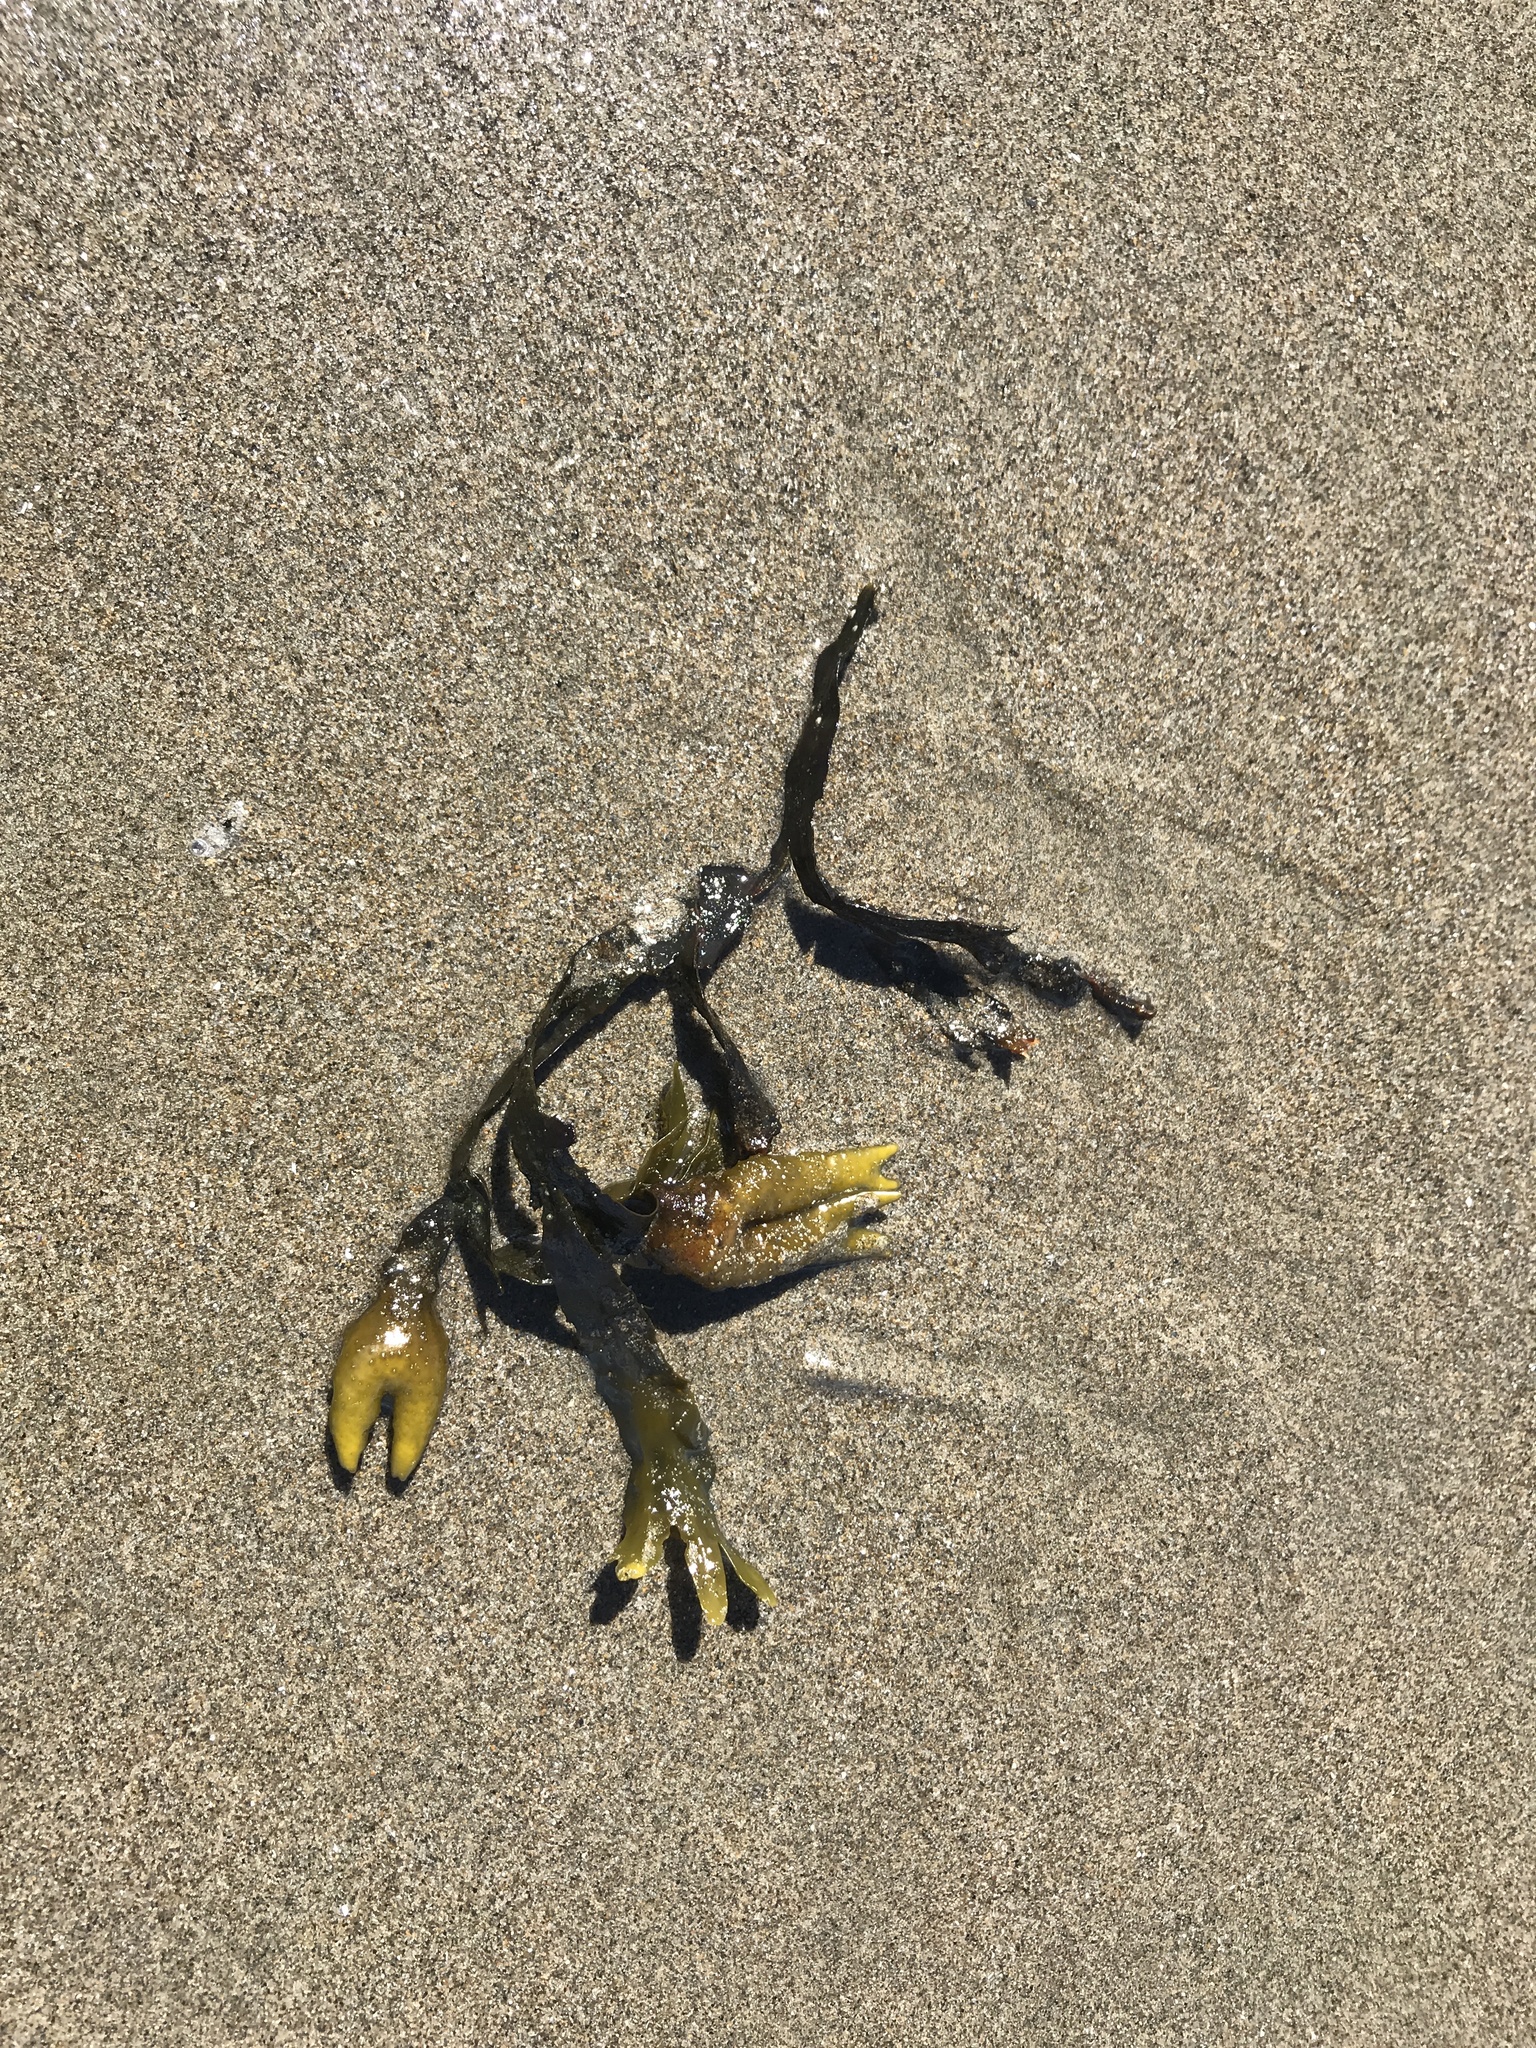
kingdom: Chromista
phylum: Ochrophyta
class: Phaeophyceae
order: Fucales
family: Fucaceae
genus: Fucus
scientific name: Fucus distichus
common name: Rockweed
